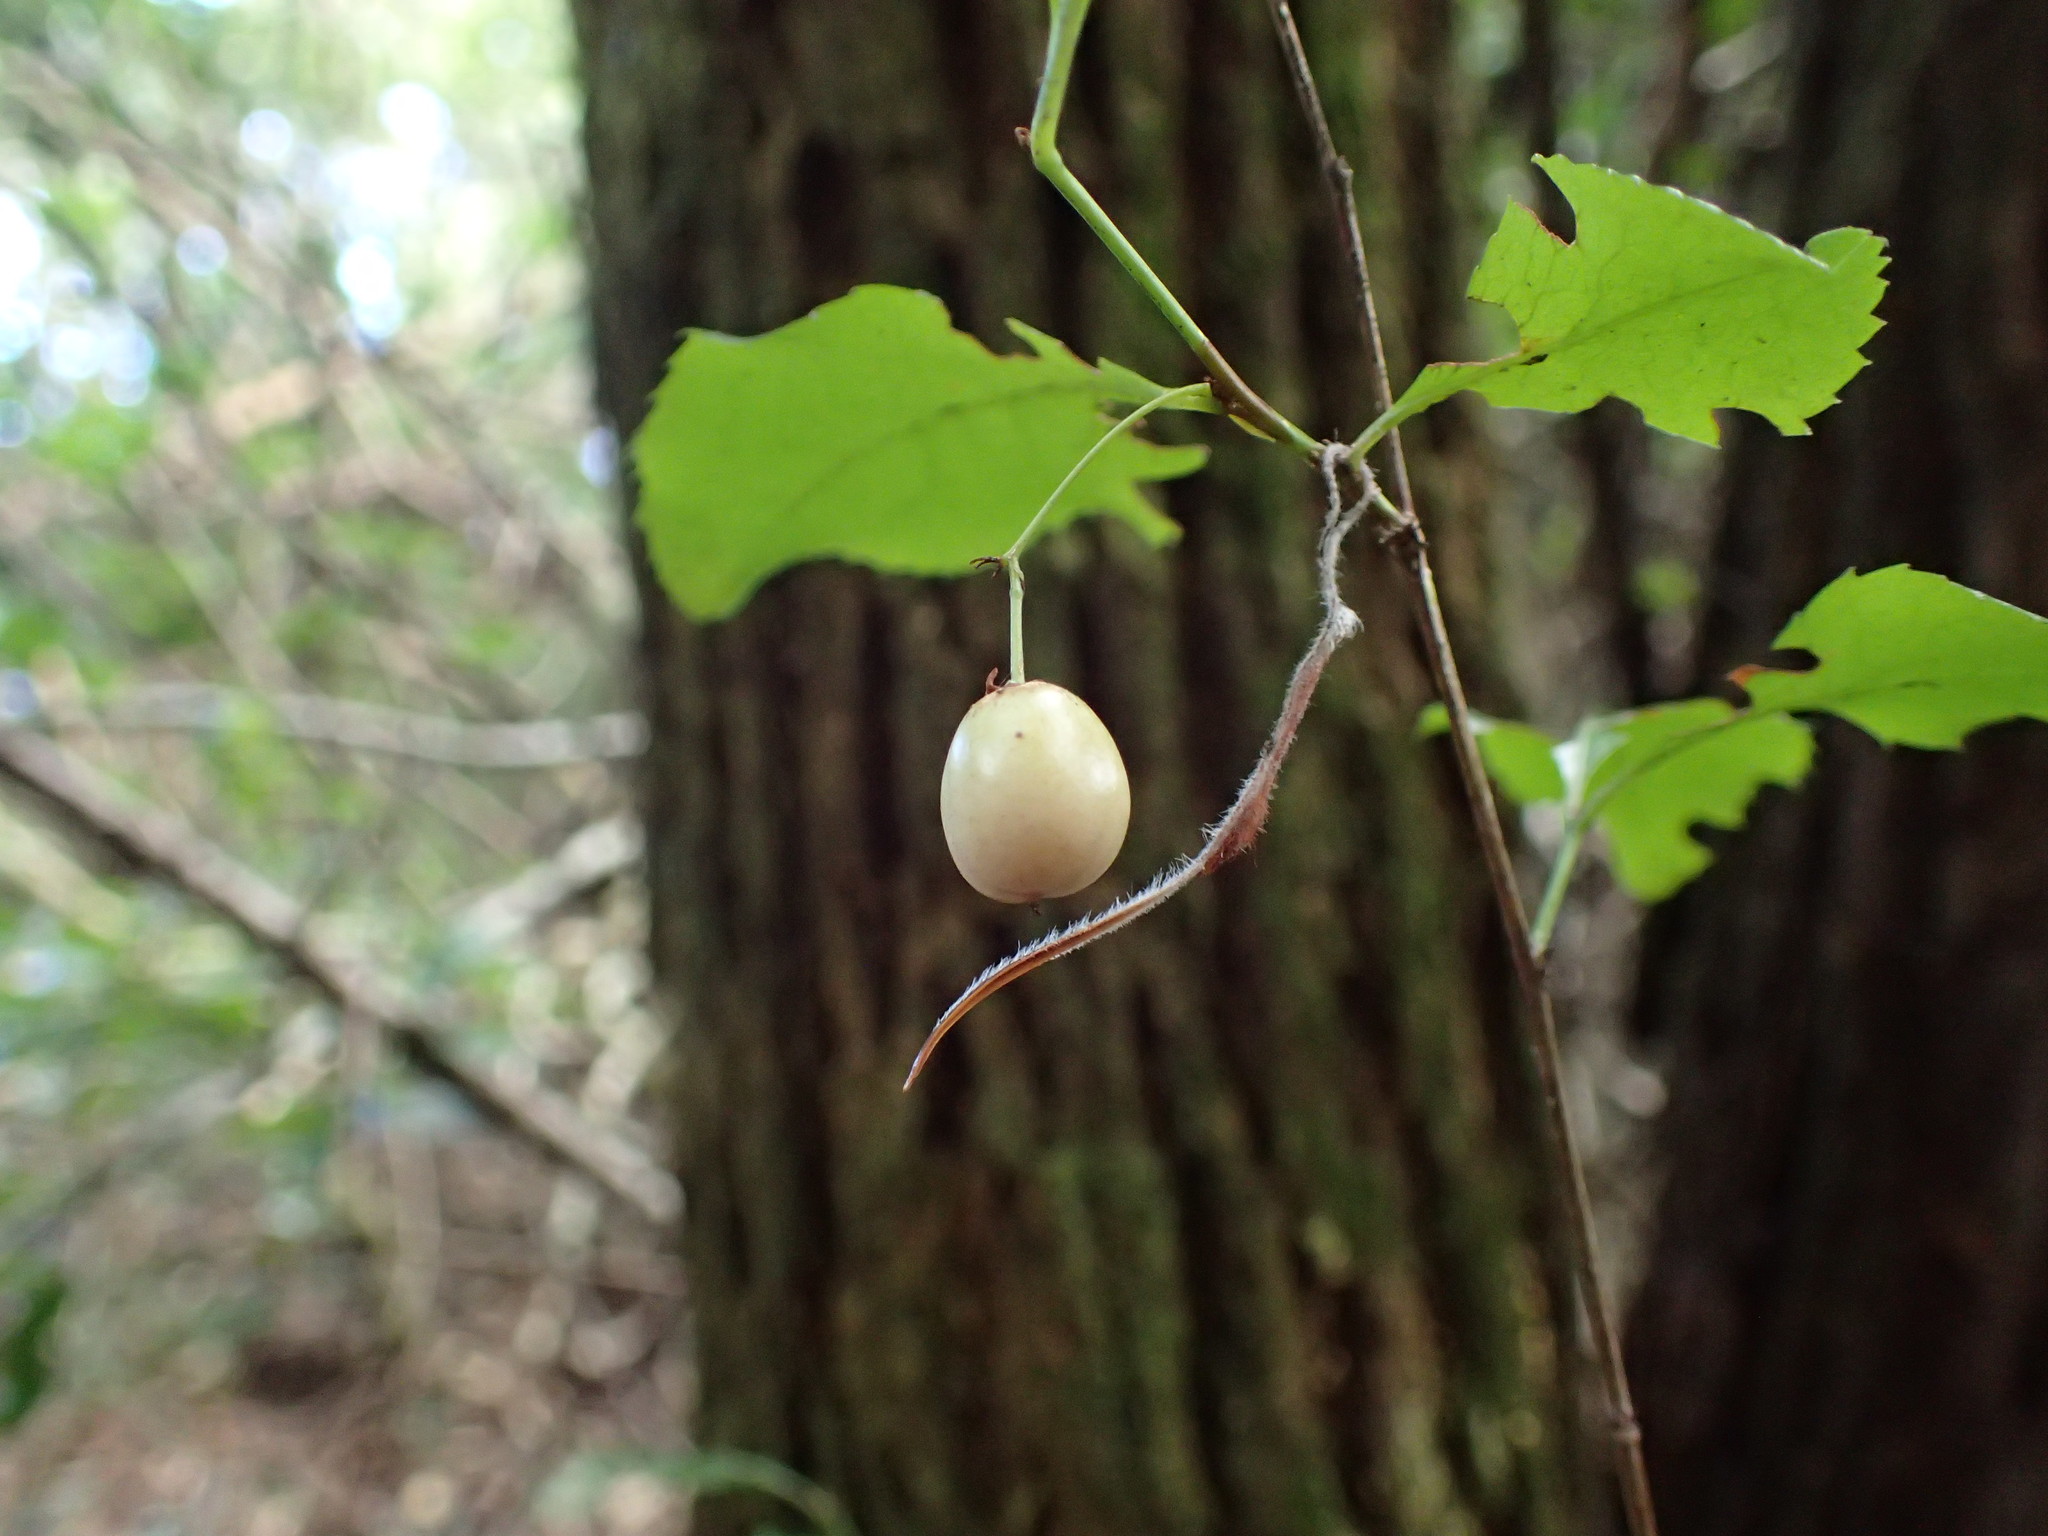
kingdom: Plantae
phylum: Tracheophyta
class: Magnoliopsida
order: Celastrales
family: Celastraceae
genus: Gymnosporia
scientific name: Gymnosporia harveyana
